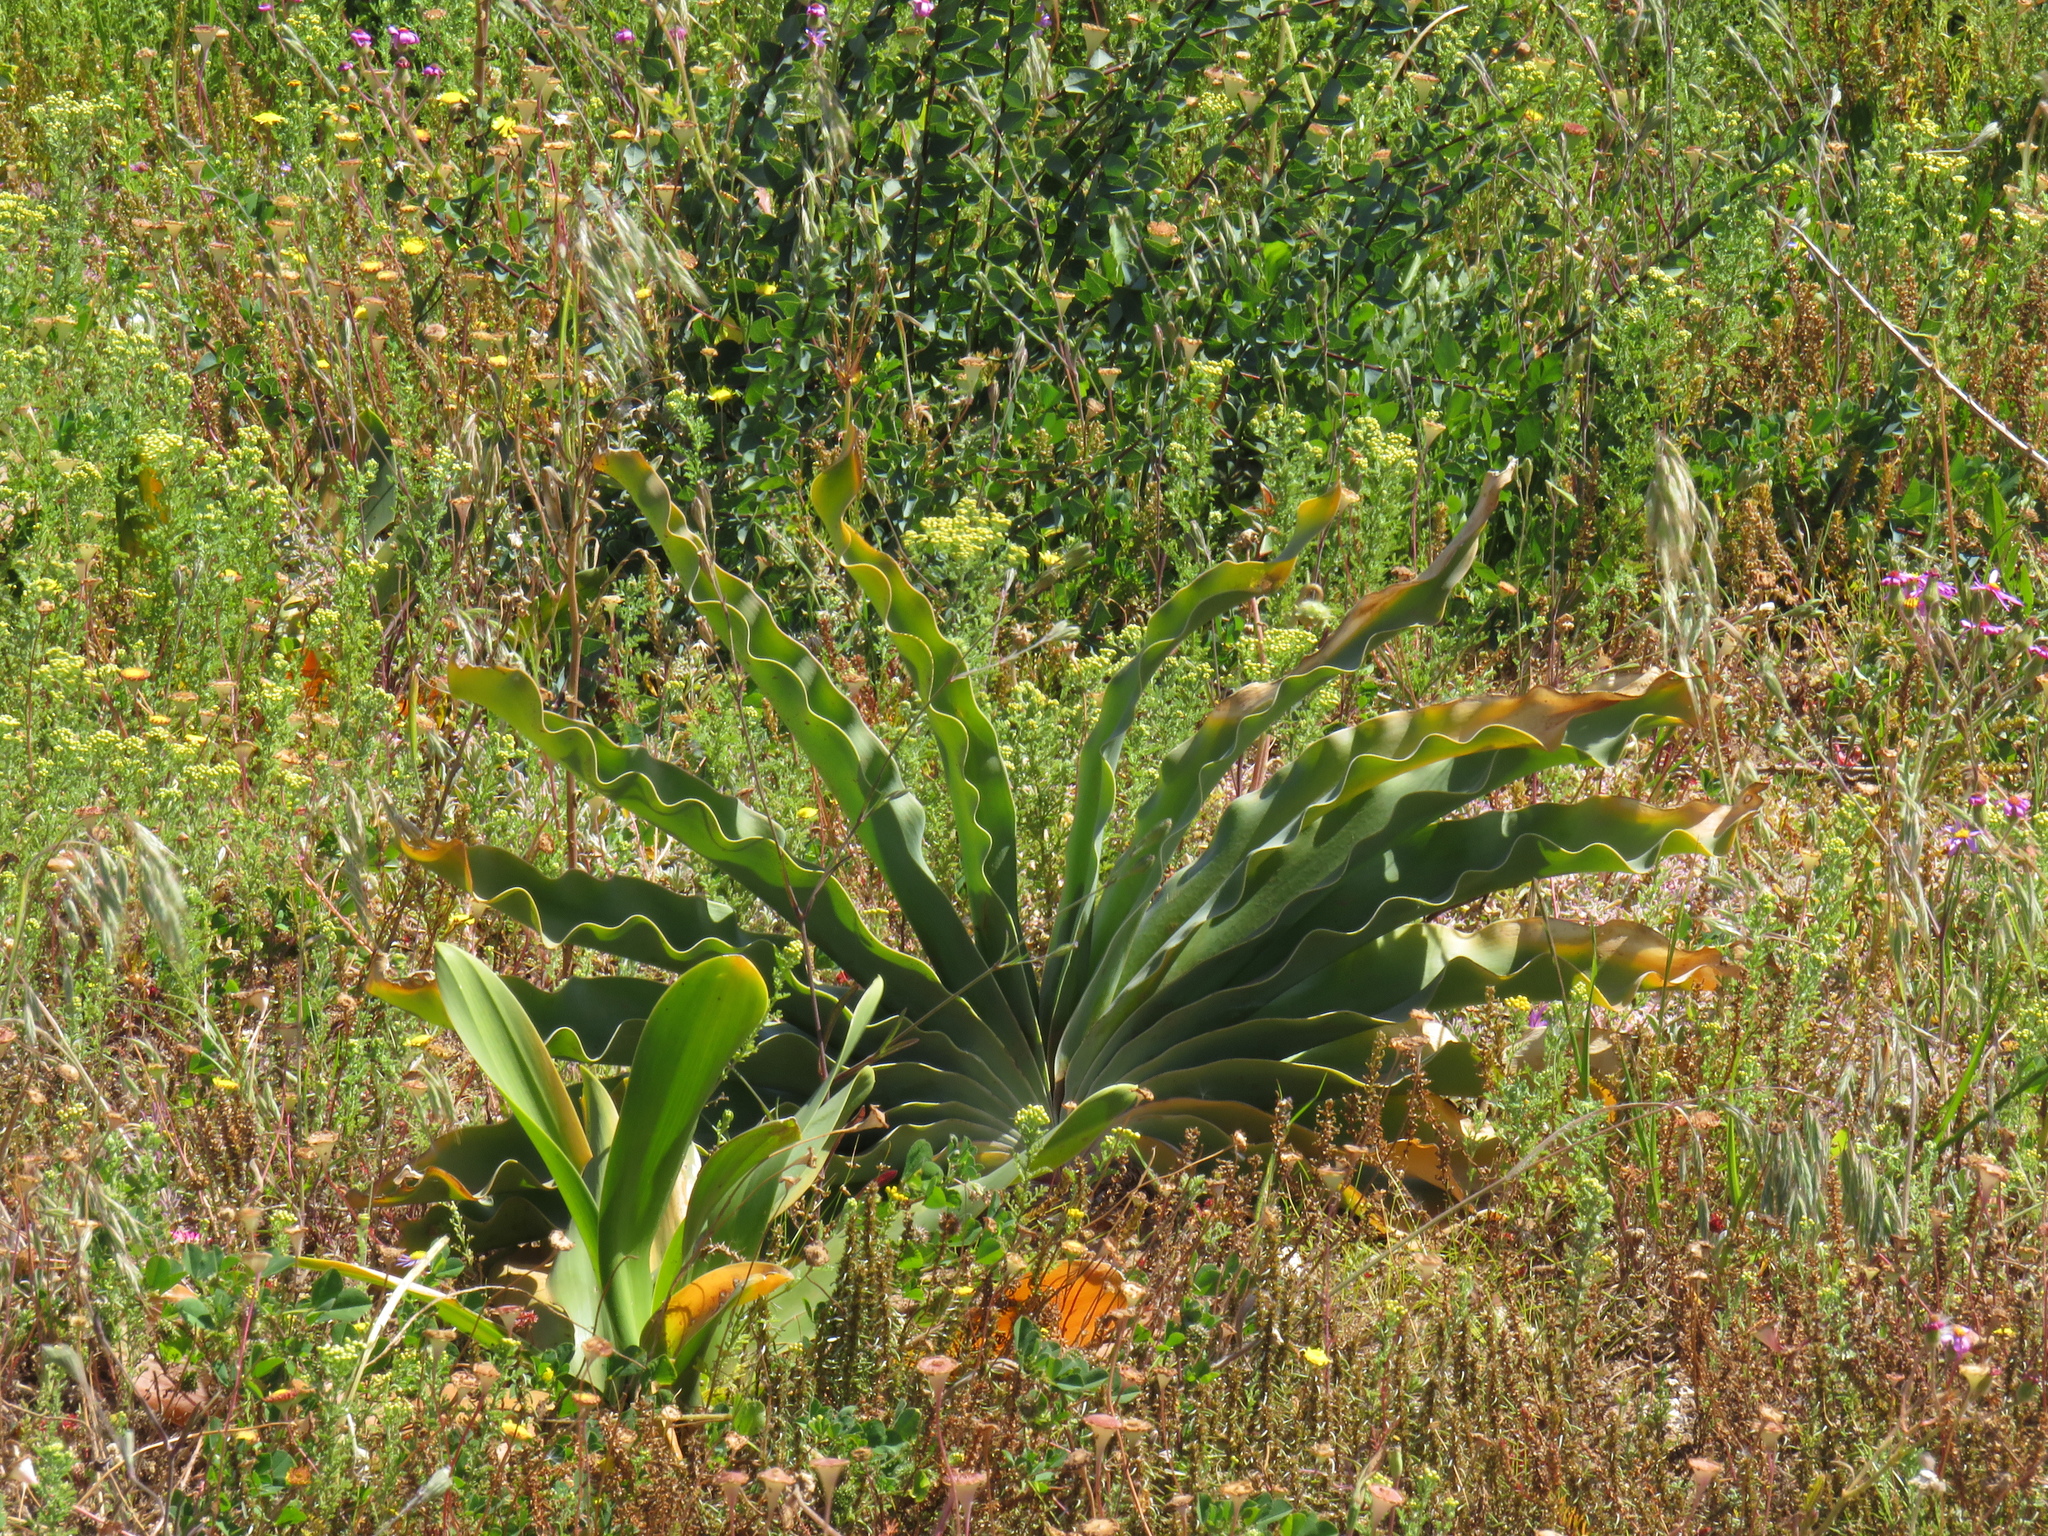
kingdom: Plantae
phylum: Tracheophyta
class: Liliopsida
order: Asparagales
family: Amaryllidaceae
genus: Boophone
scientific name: Boophone haemanthoides
